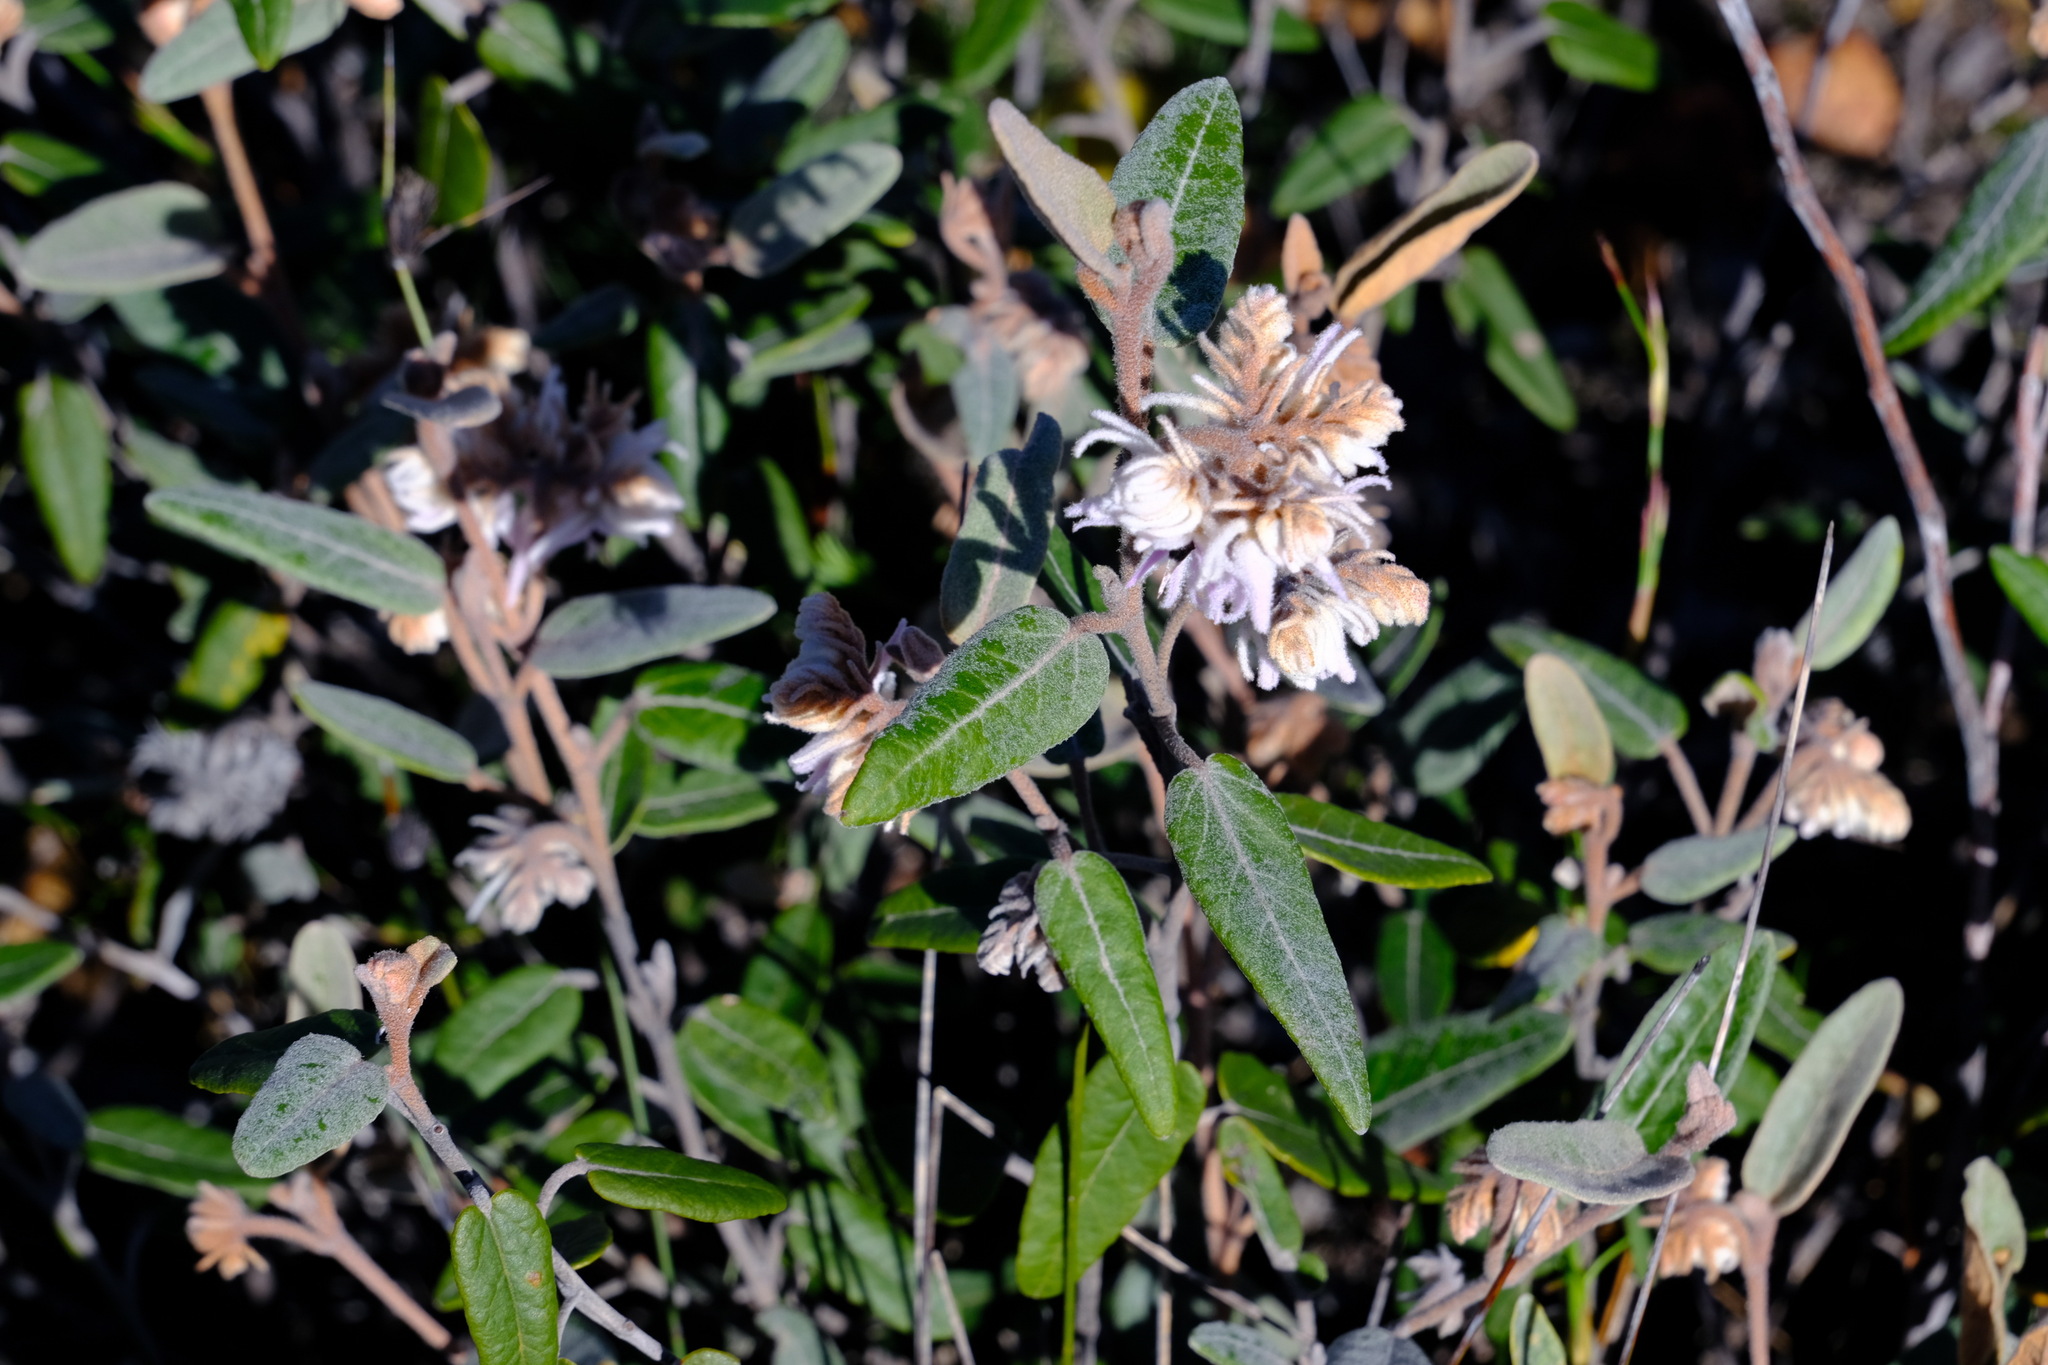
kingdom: Plantae
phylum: Tracheophyta
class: Magnoliopsida
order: Malvales
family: Malvaceae
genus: Lasiopetalum
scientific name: Lasiopetalum drummondii
